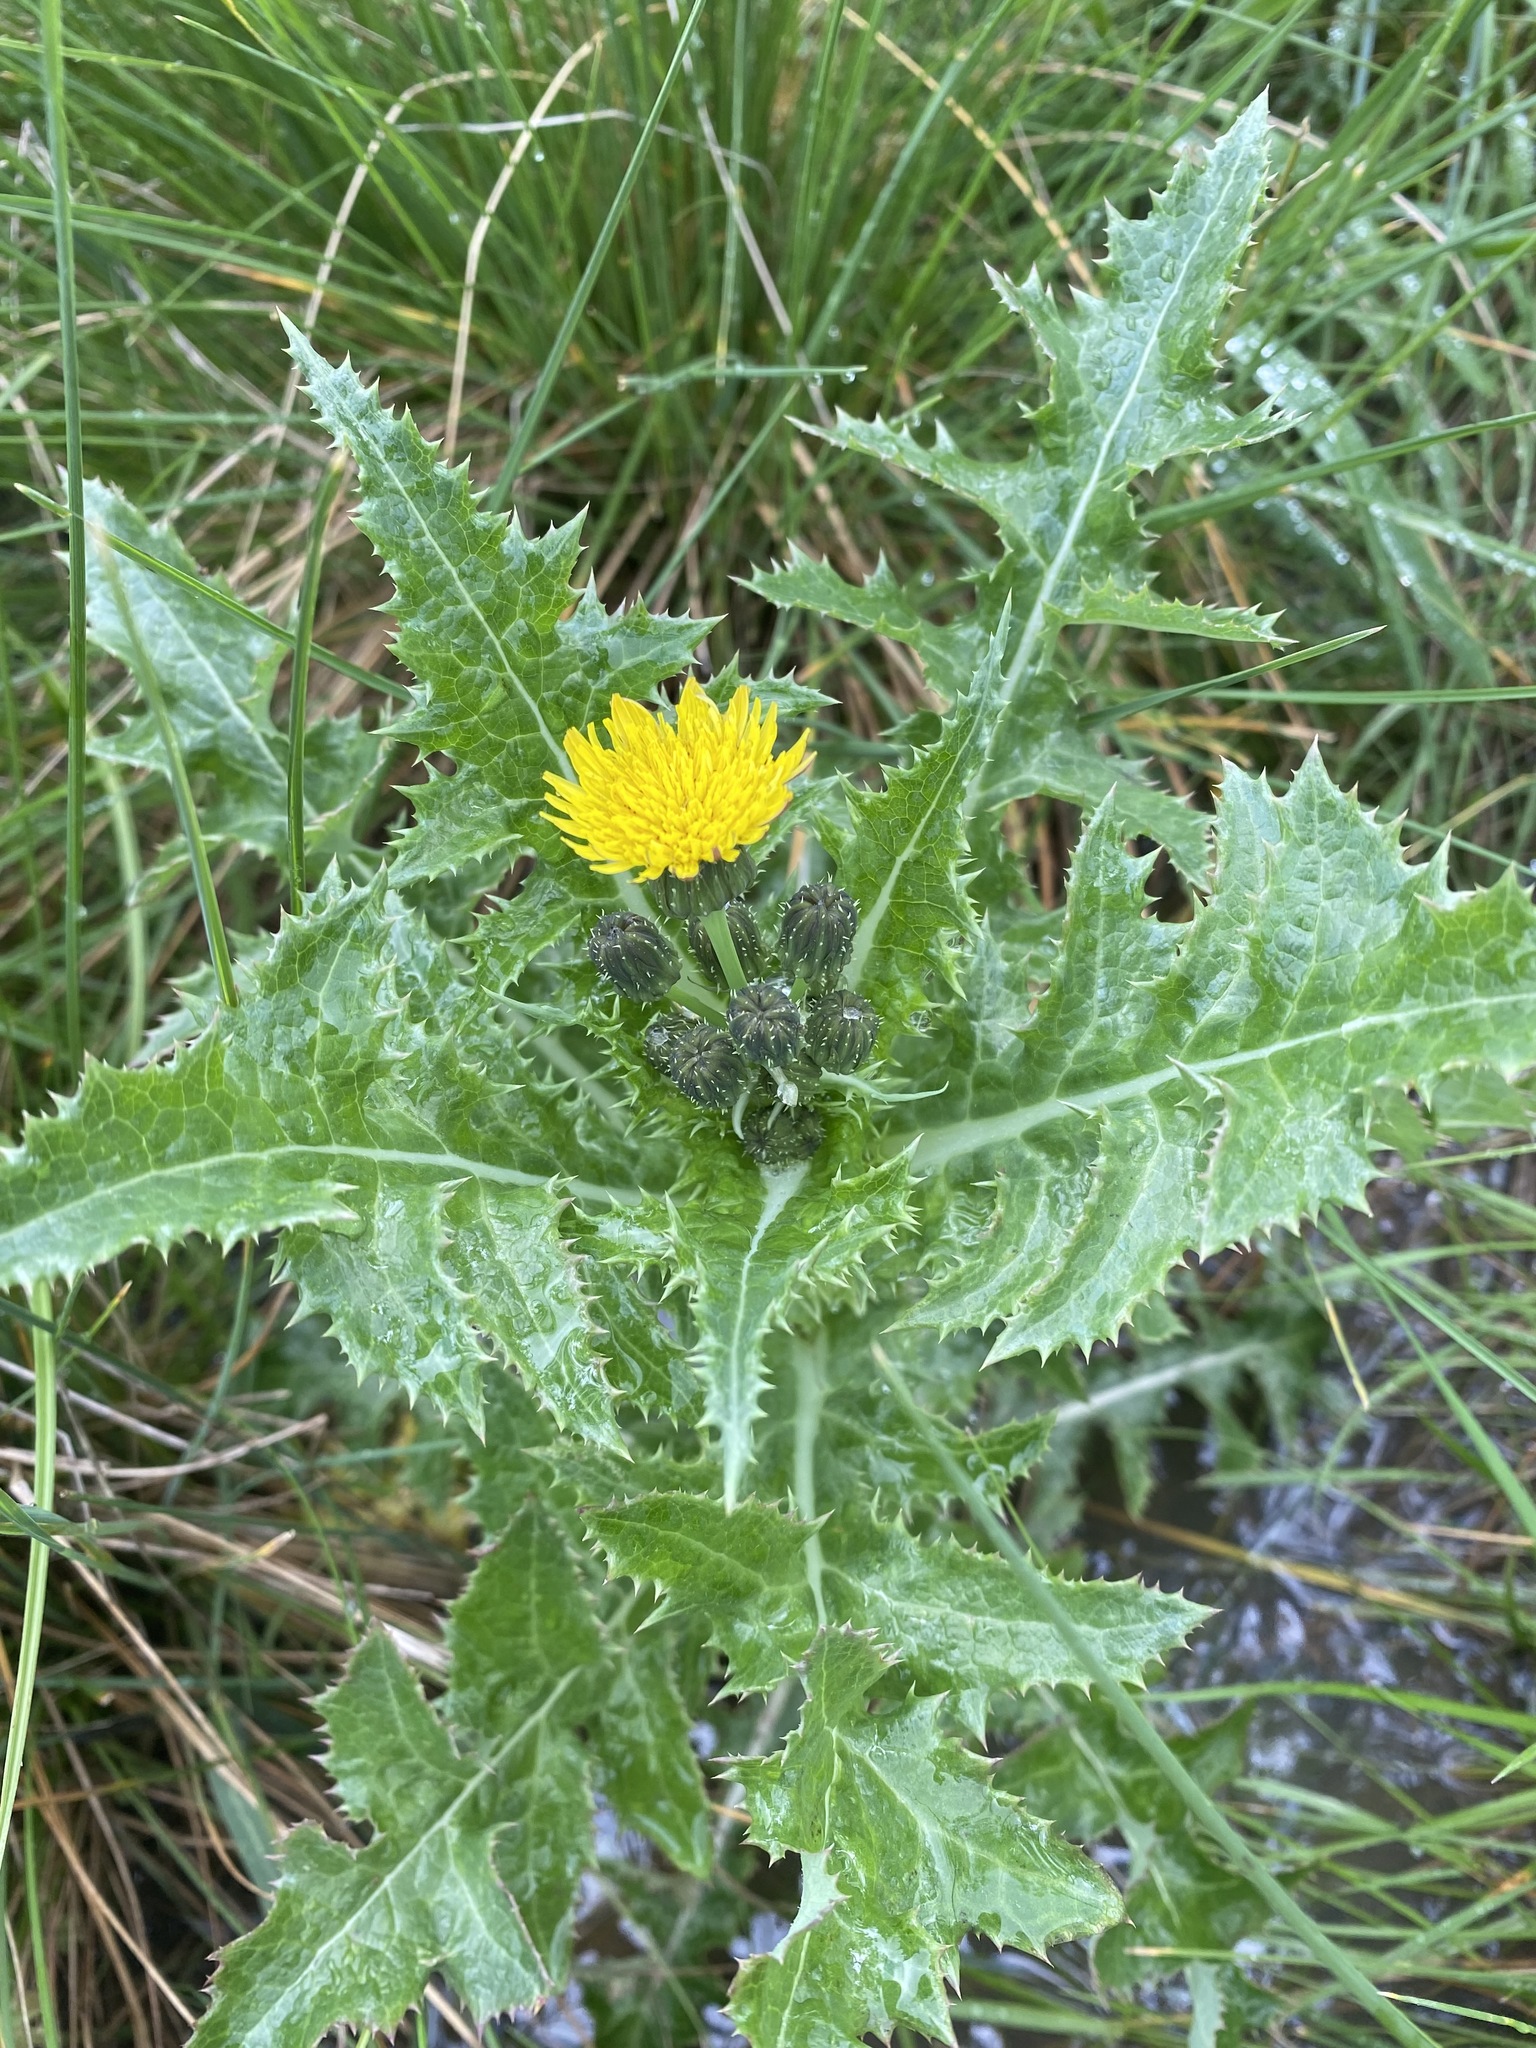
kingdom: Plantae
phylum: Tracheophyta
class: Magnoliopsida
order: Asterales
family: Asteraceae
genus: Sonchus
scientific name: Sonchus asper
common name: Prickly sow-thistle
